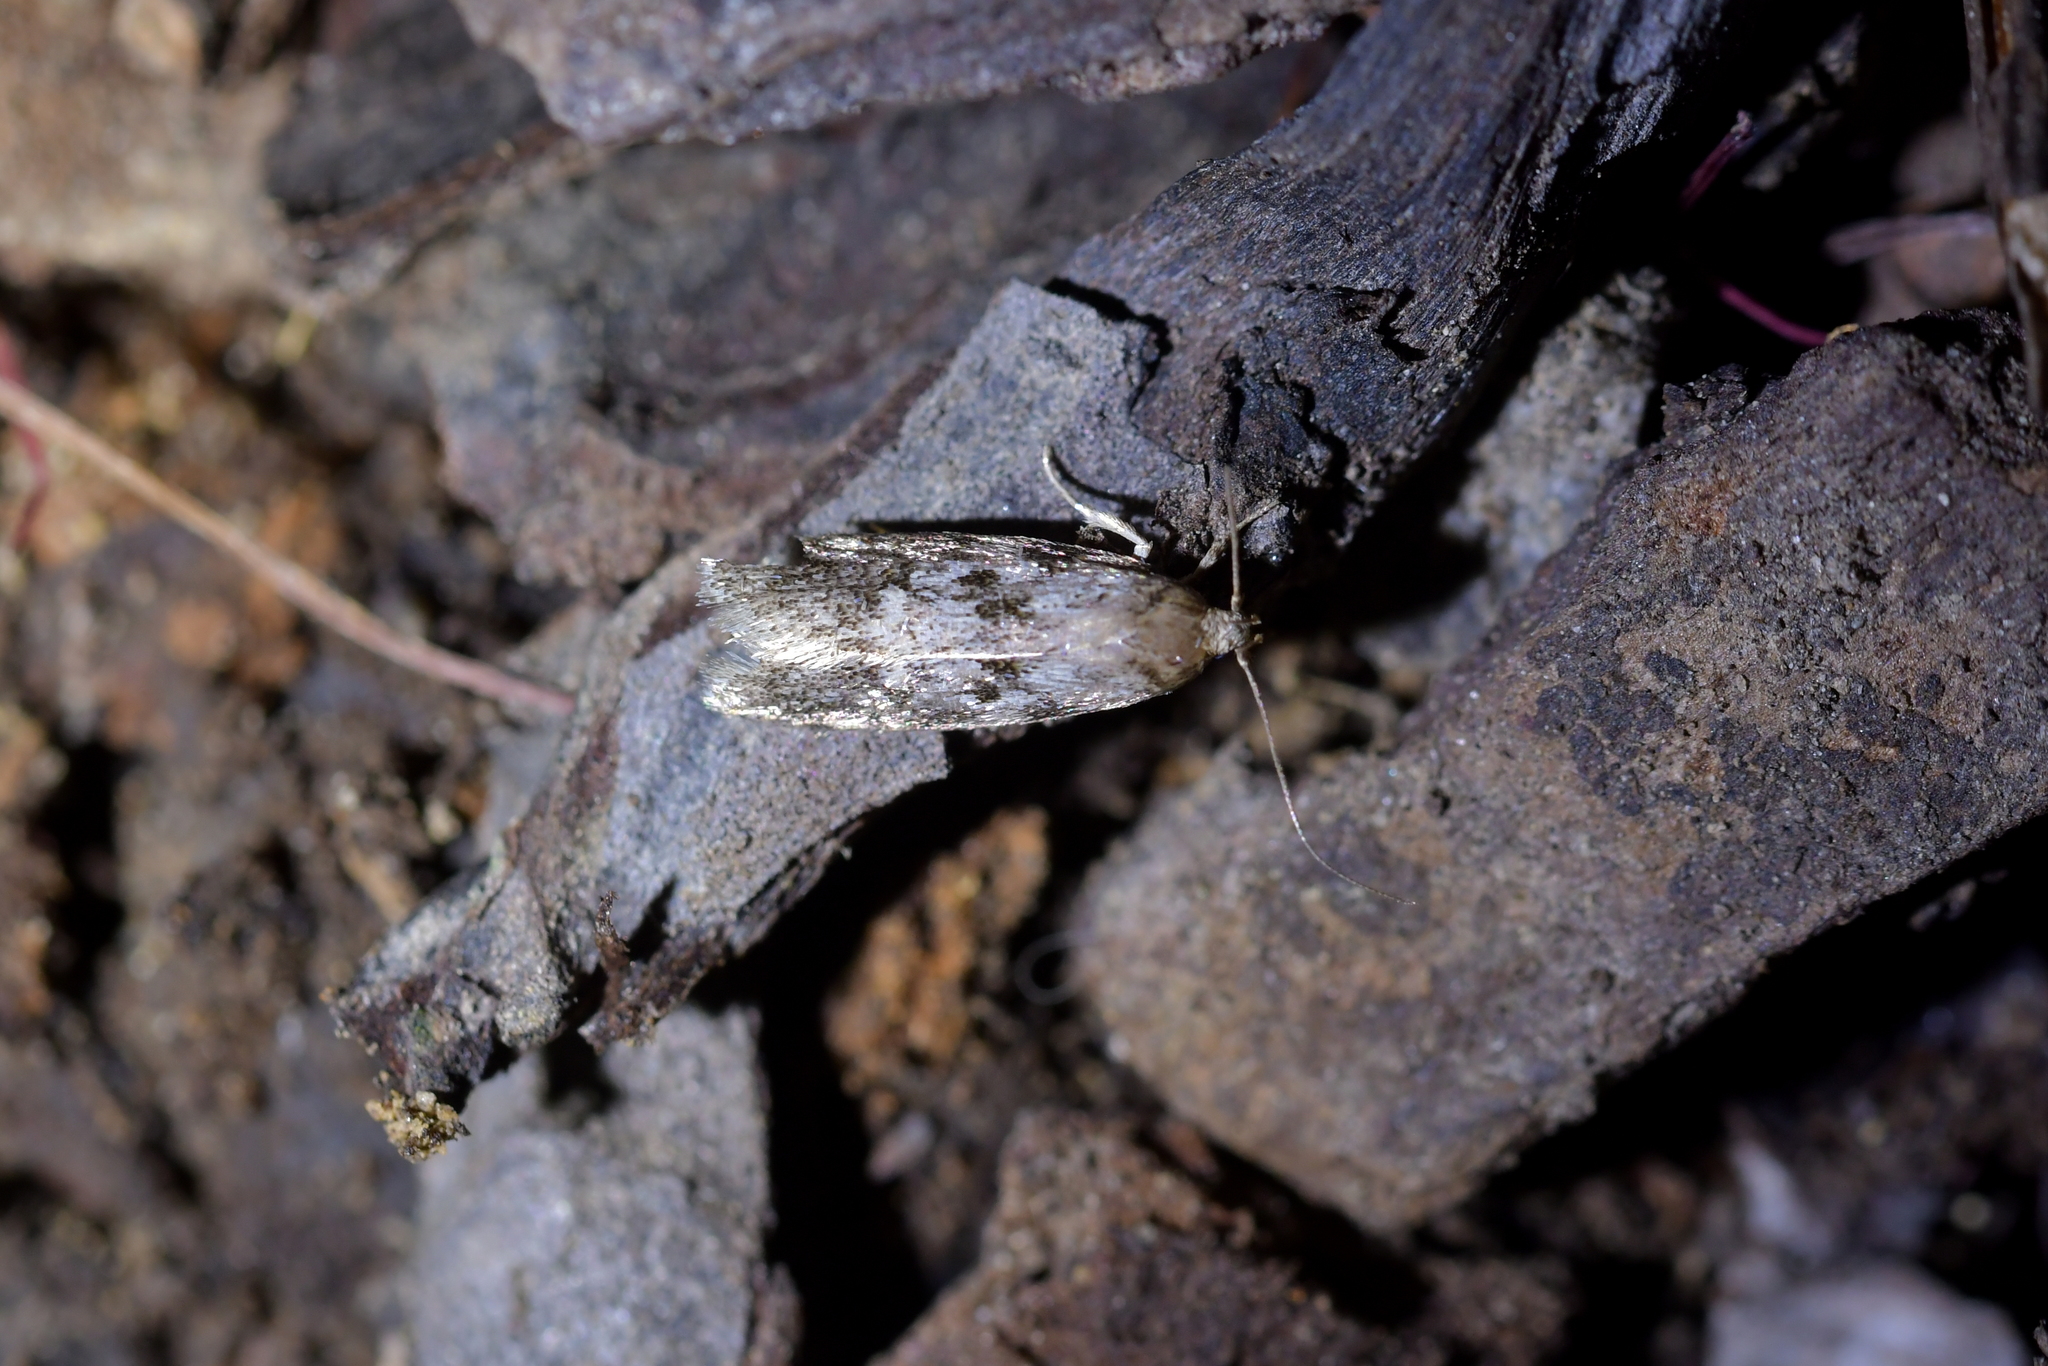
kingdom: Animalia
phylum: Arthropoda
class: Insecta
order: Lepidoptera
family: Oecophoridae
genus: Trachypepla
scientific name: Trachypepla photinella
